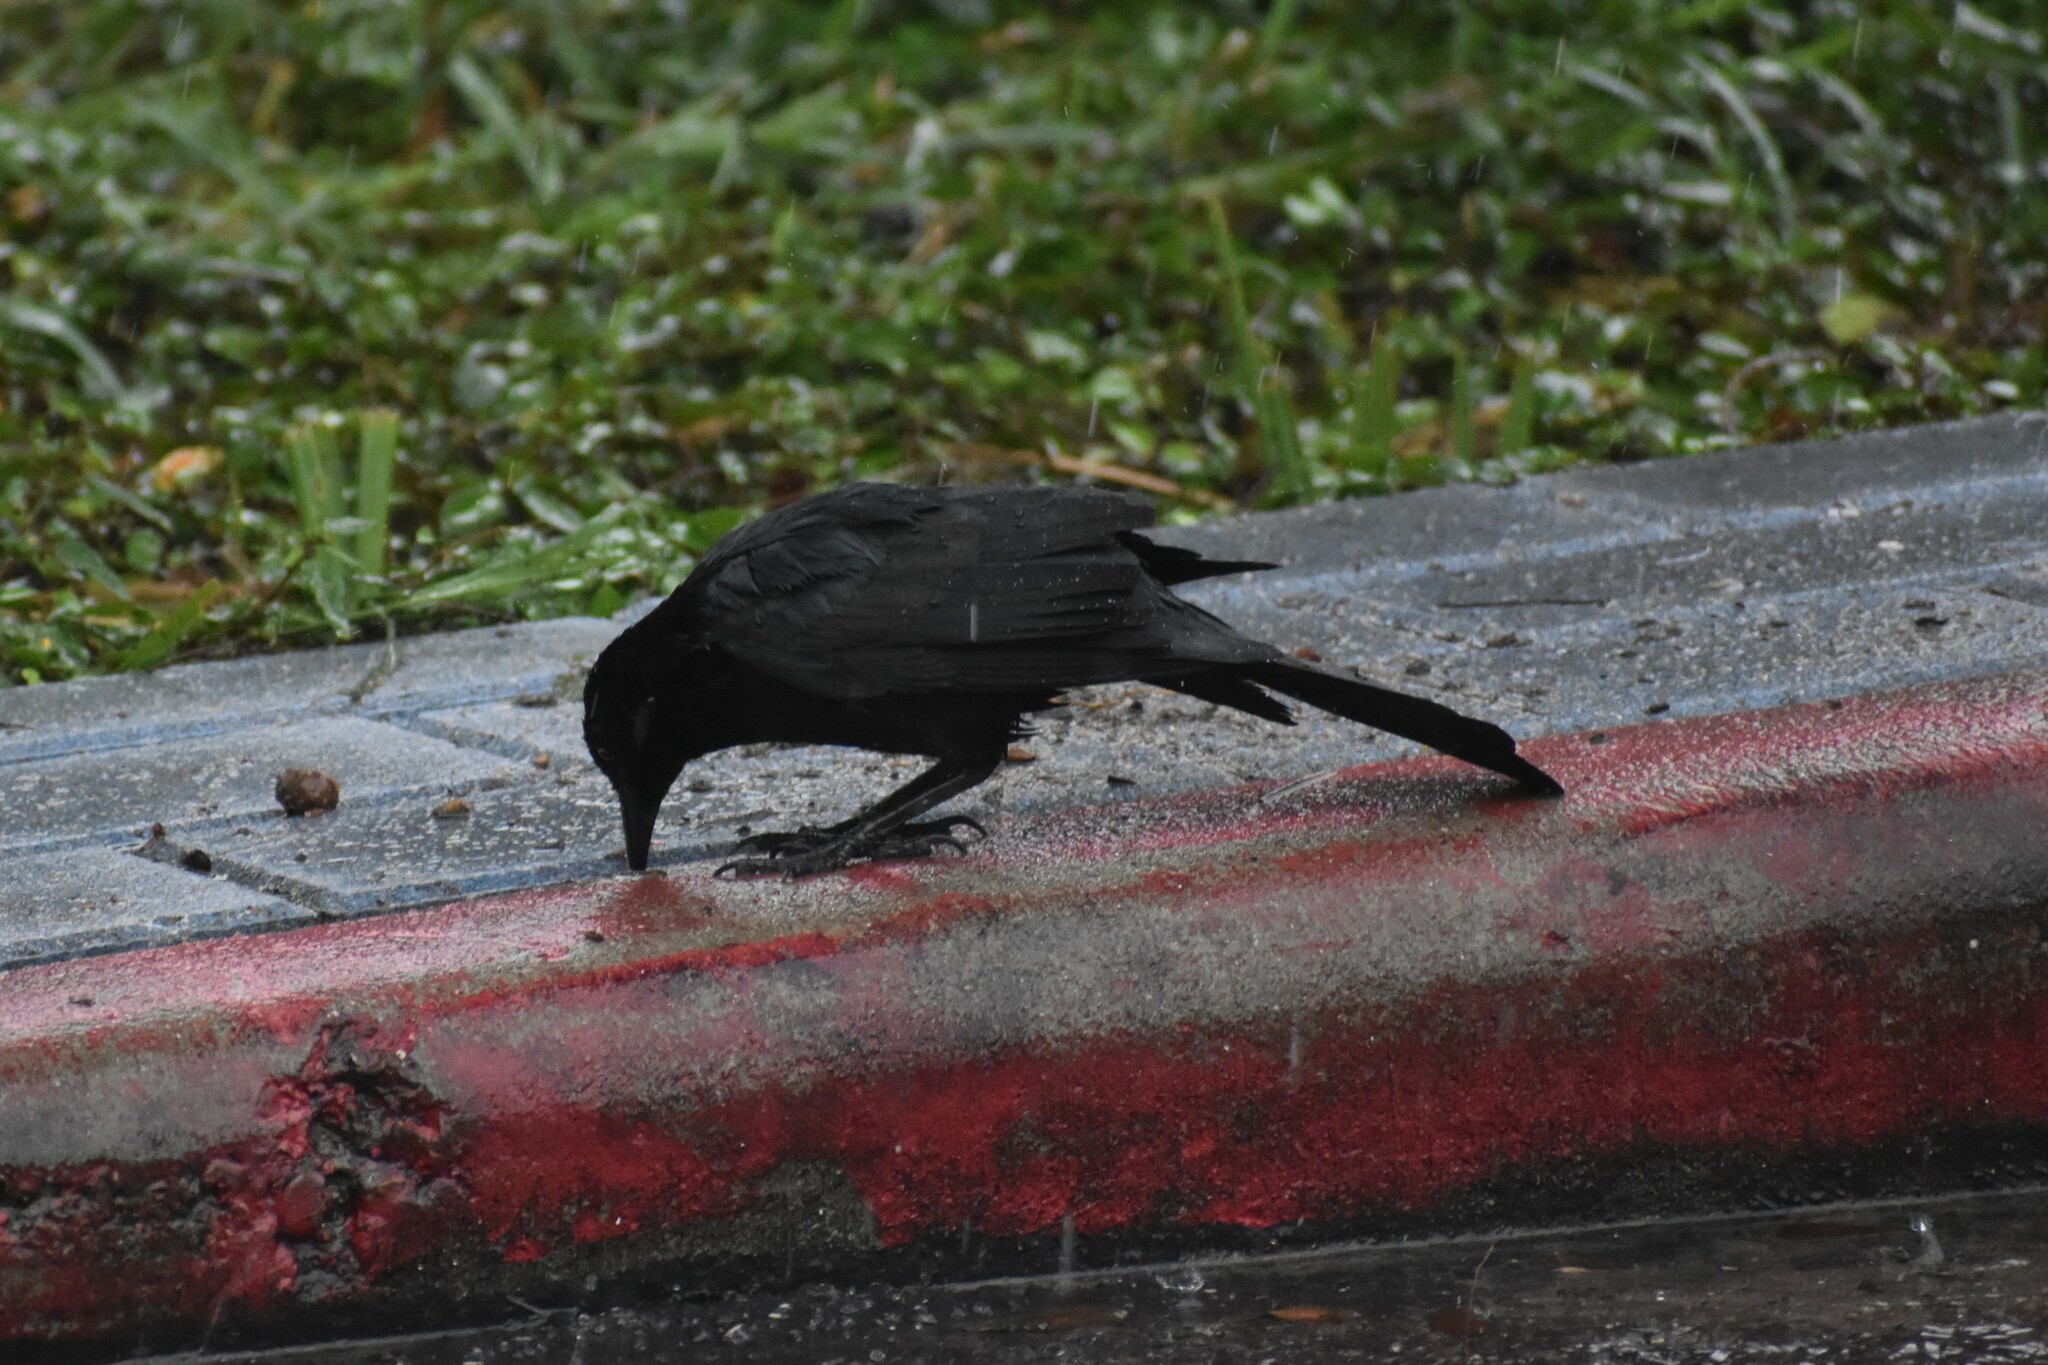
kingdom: Animalia
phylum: Chordata
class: Aves
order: Passeriformes
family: Icteridae
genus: Quiscalus
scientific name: Quiscalus mexicanus
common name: Great-tailed grackle
